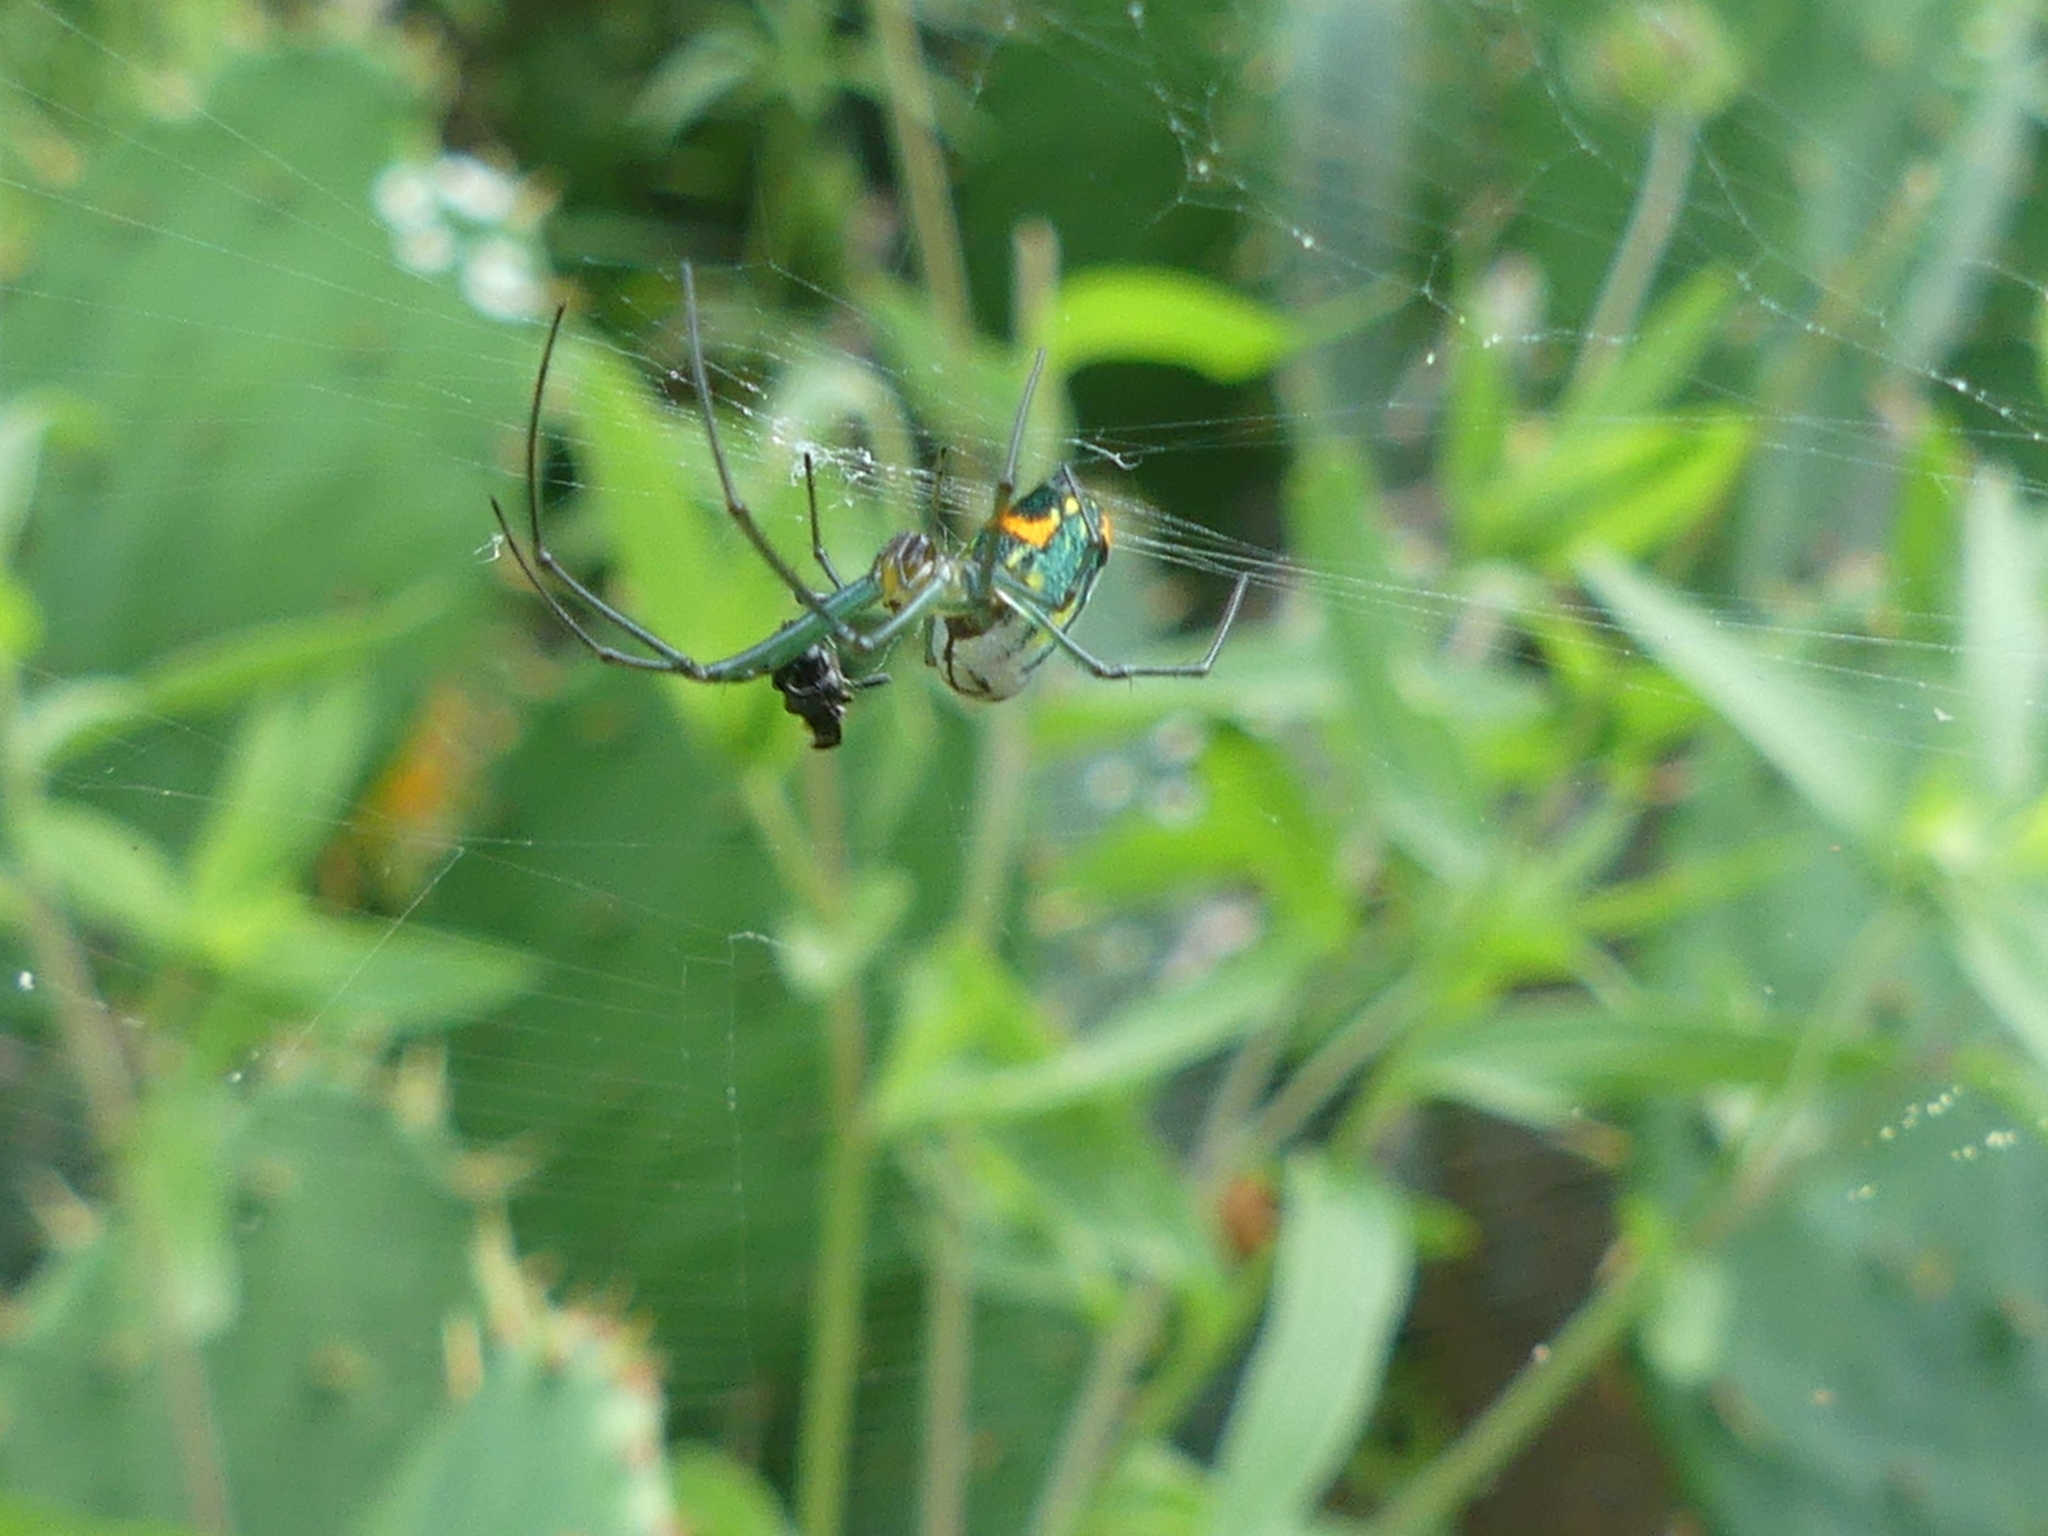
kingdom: Animalia
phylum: Arthropoda
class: Arachnida
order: Araneae
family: Tetragnathidae
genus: Leucauge
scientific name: Leucauge argyrobapta
